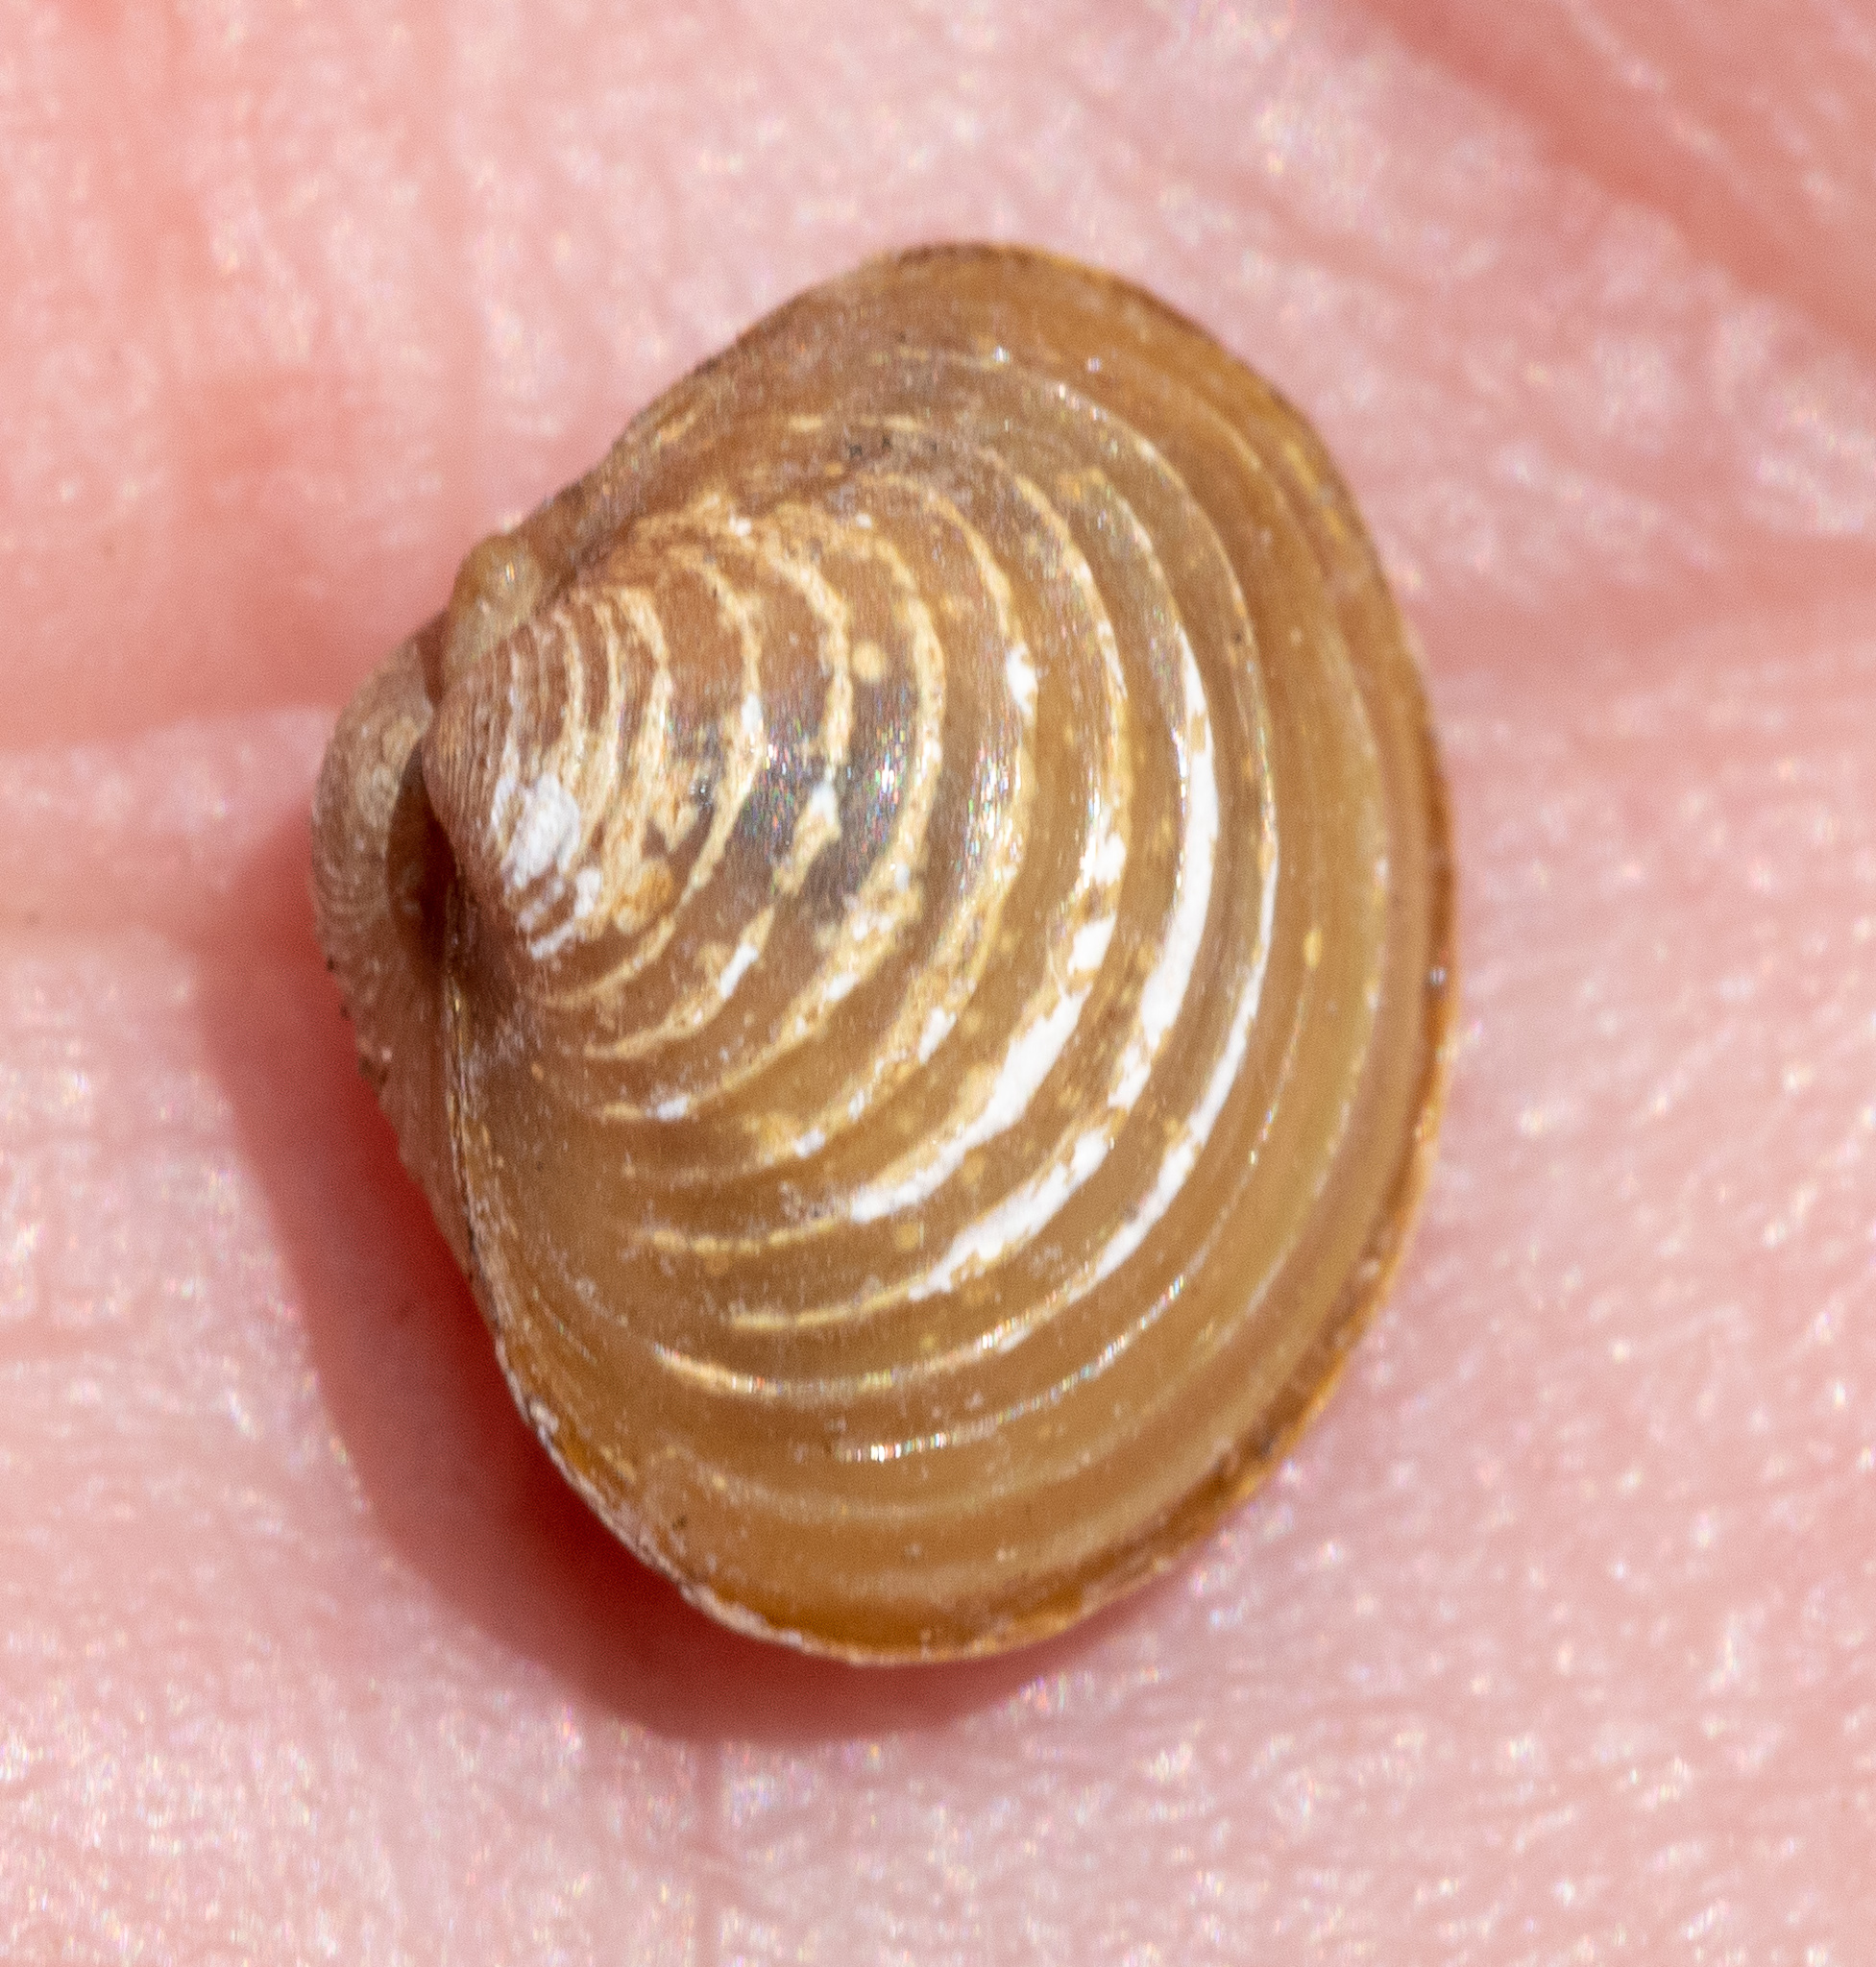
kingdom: Animalia
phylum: Mollusca
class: Bivalvia
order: Venerida
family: Cyrenidae
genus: Corbicula
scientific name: Corbicula fluminea
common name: Asian clam
